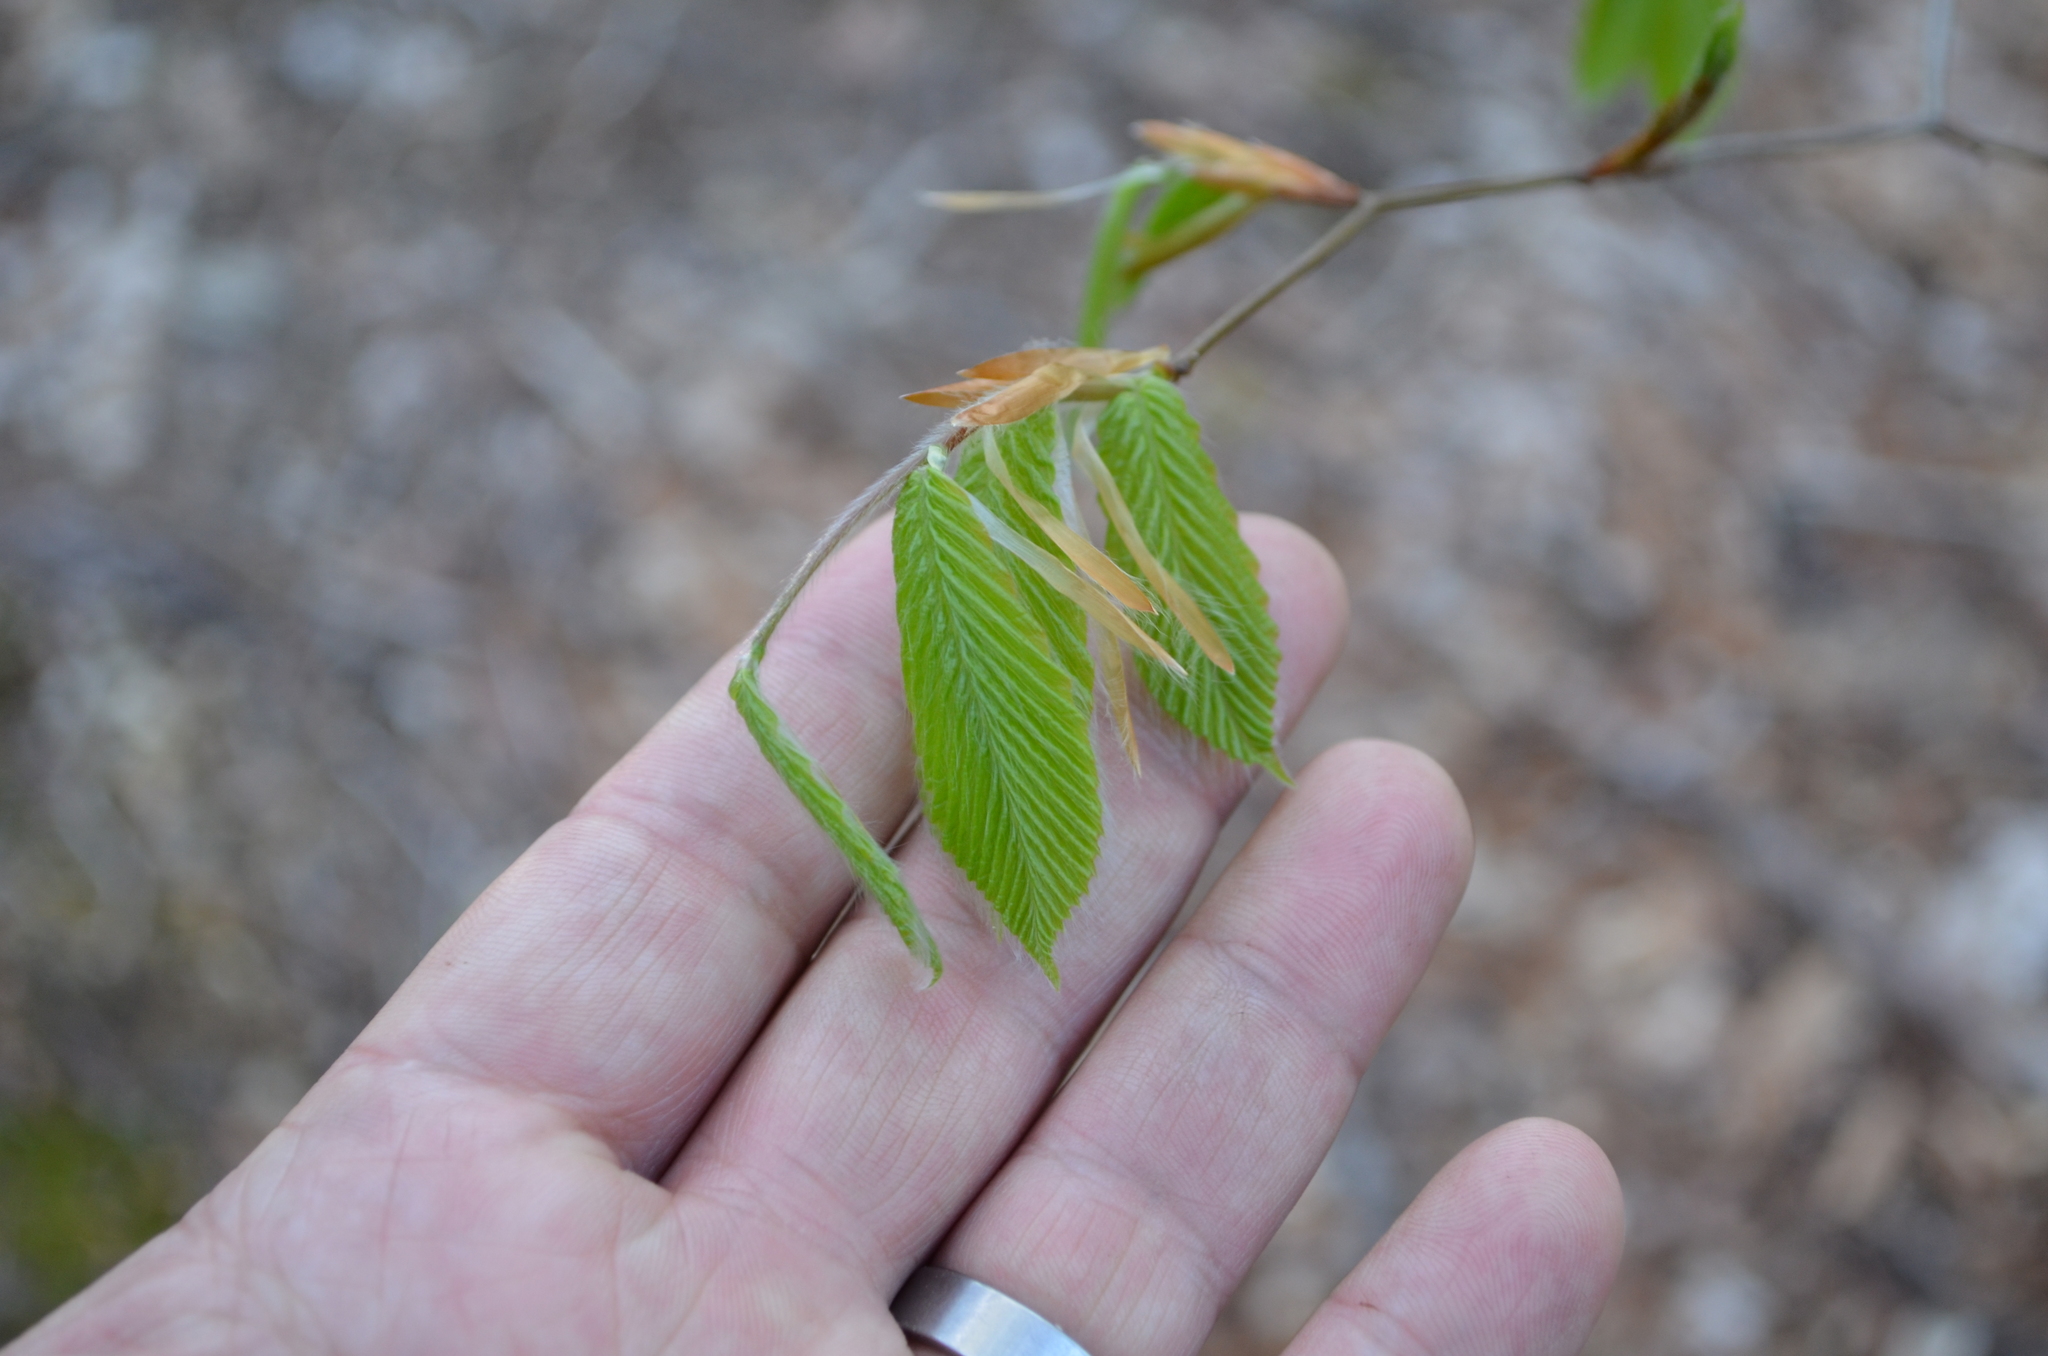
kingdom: Plantae
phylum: Tracheophyta
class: Magnoliopsida
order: Fagales
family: Fagaceae
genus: Fagus
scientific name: Fagus grandifolia
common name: American beech
